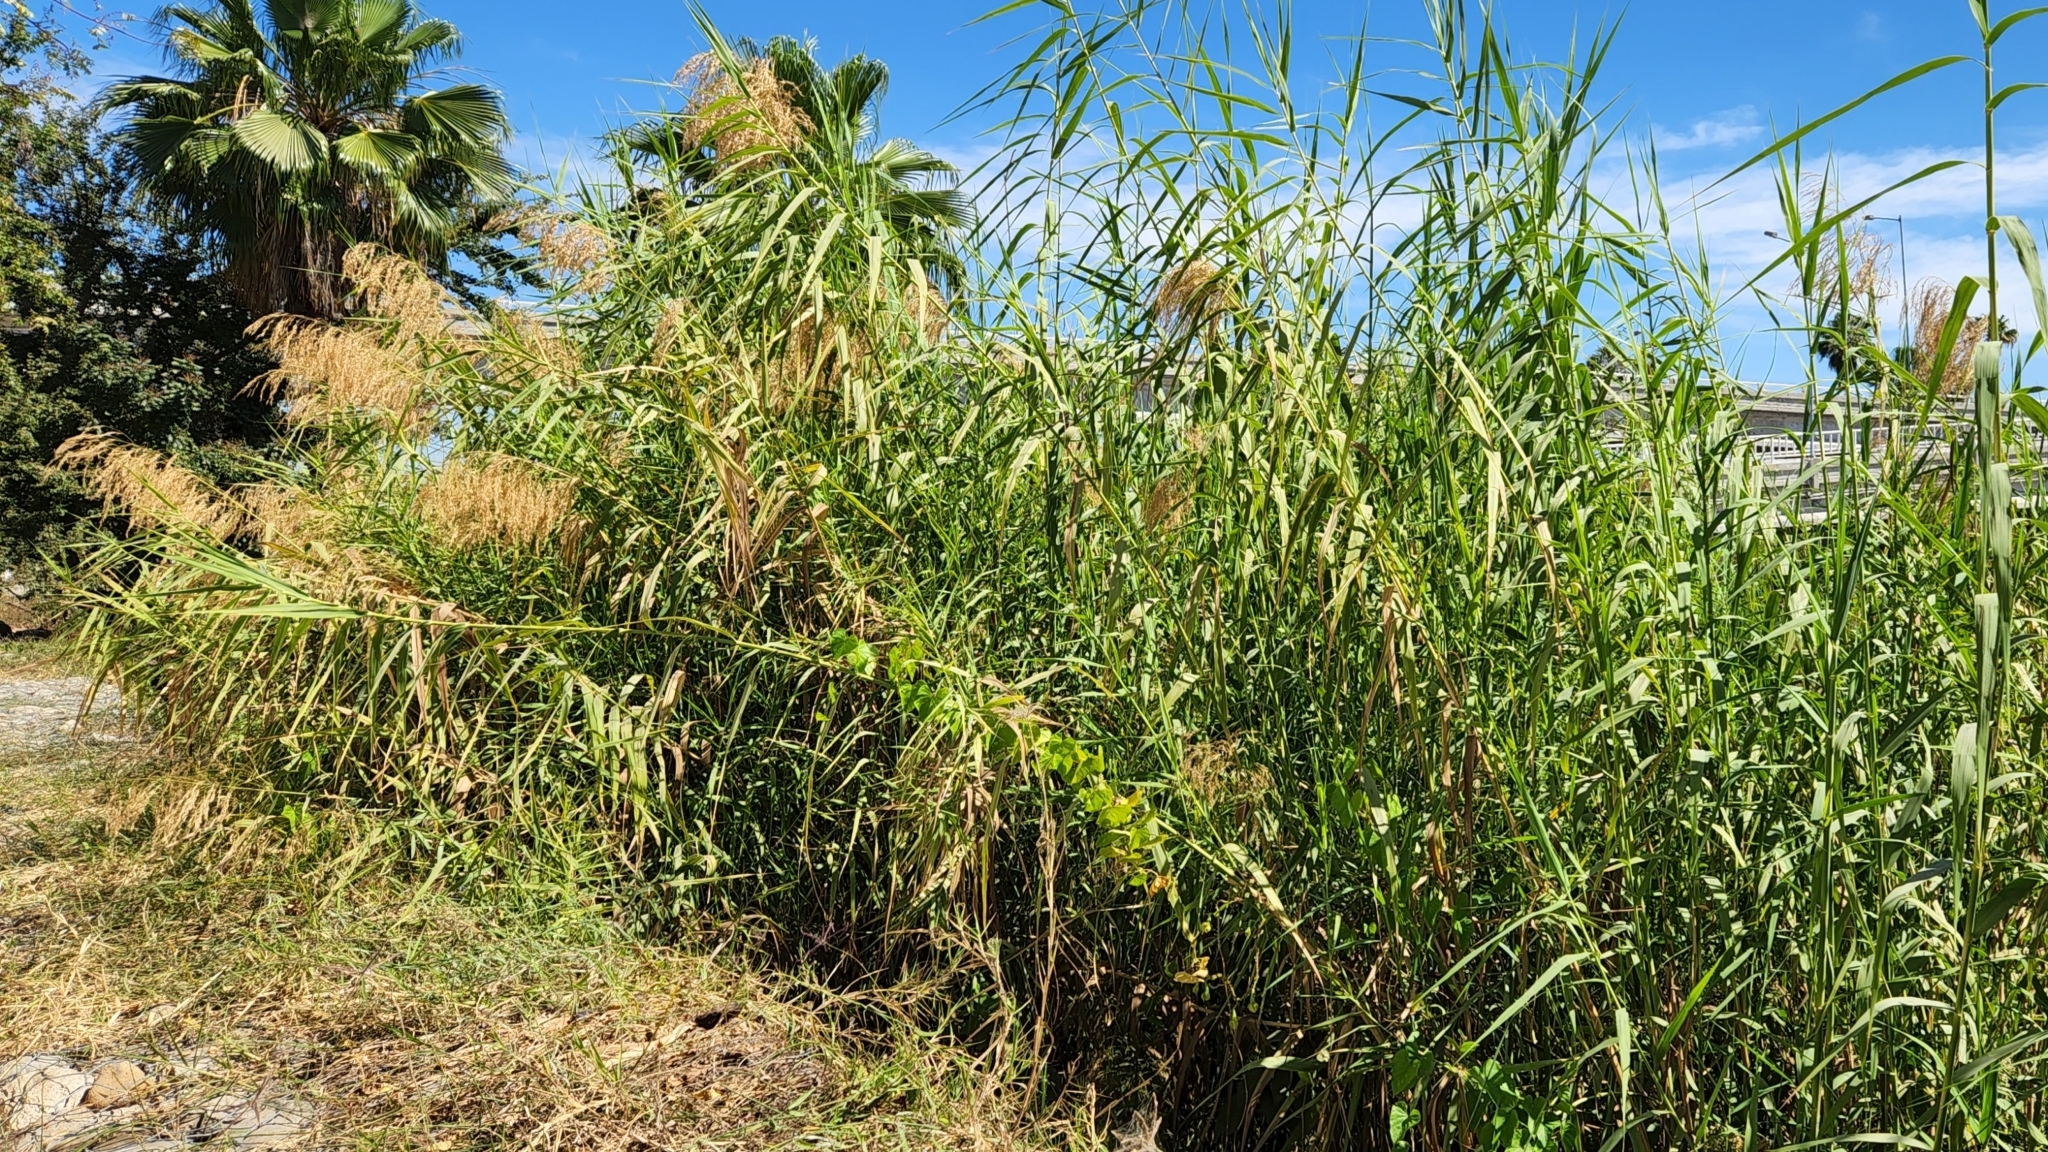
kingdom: Plantae
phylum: Tracheophyta
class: Liliopsida
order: Poales
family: Poaceae
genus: Arundo
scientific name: Arundo donax
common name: Giant reed
